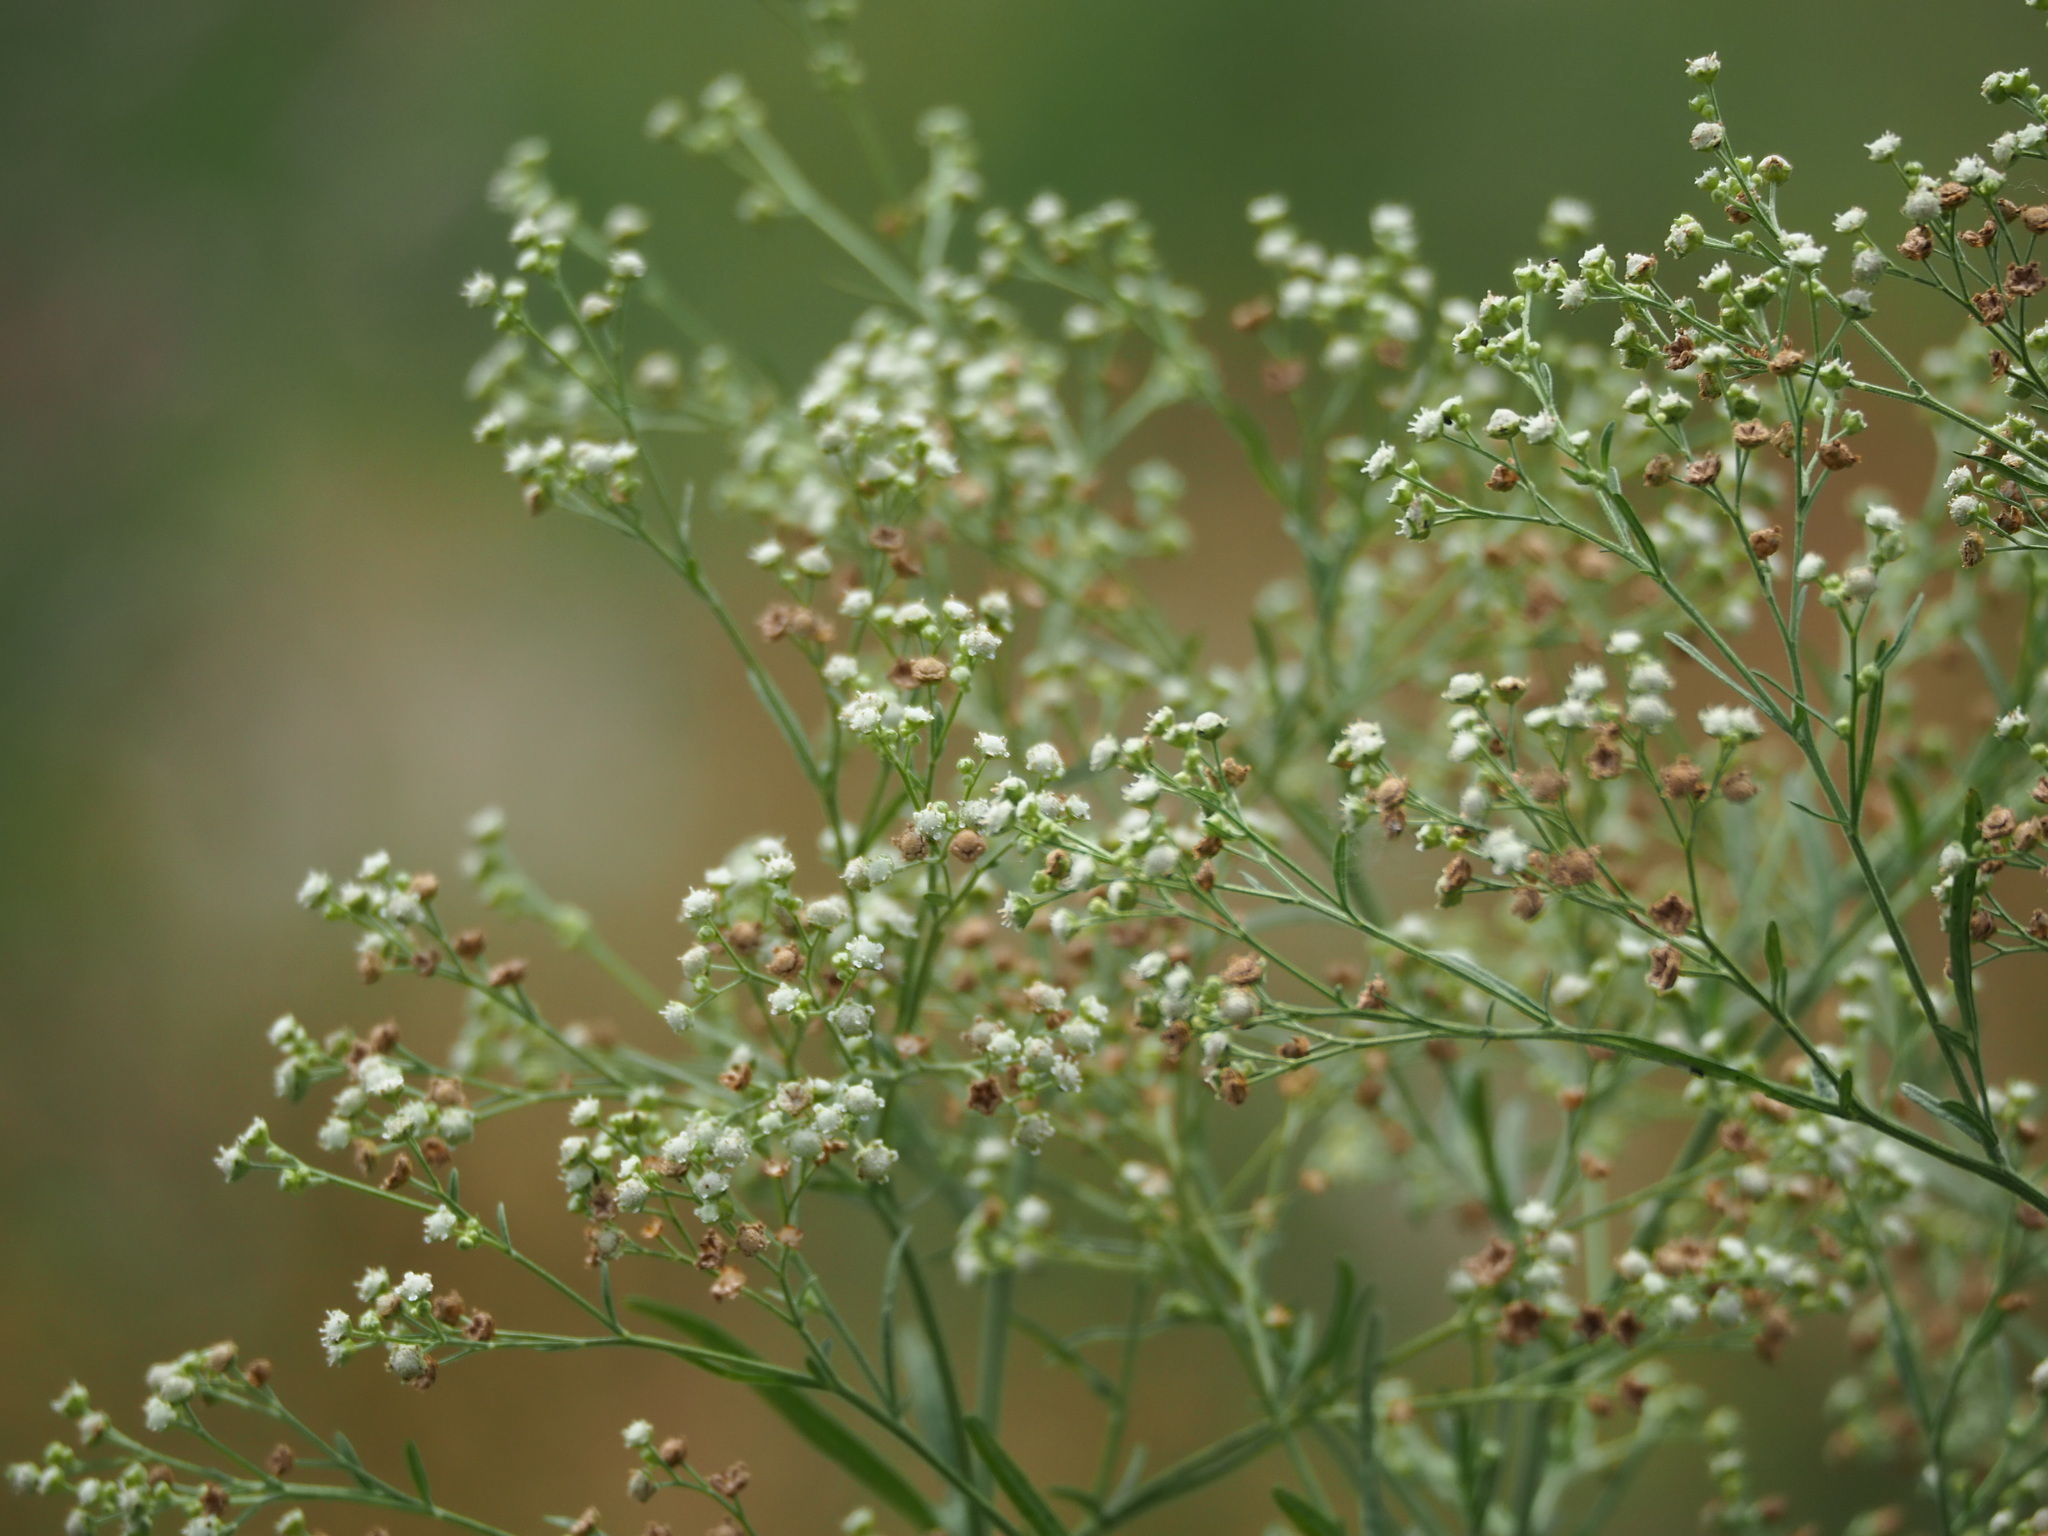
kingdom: Plantae
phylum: Tracheophyta
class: Magnoliopsida
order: Asterales
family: Asteraceae
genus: Parthenium
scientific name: Parthenium hysterophorus
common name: Santa maria feverfew
